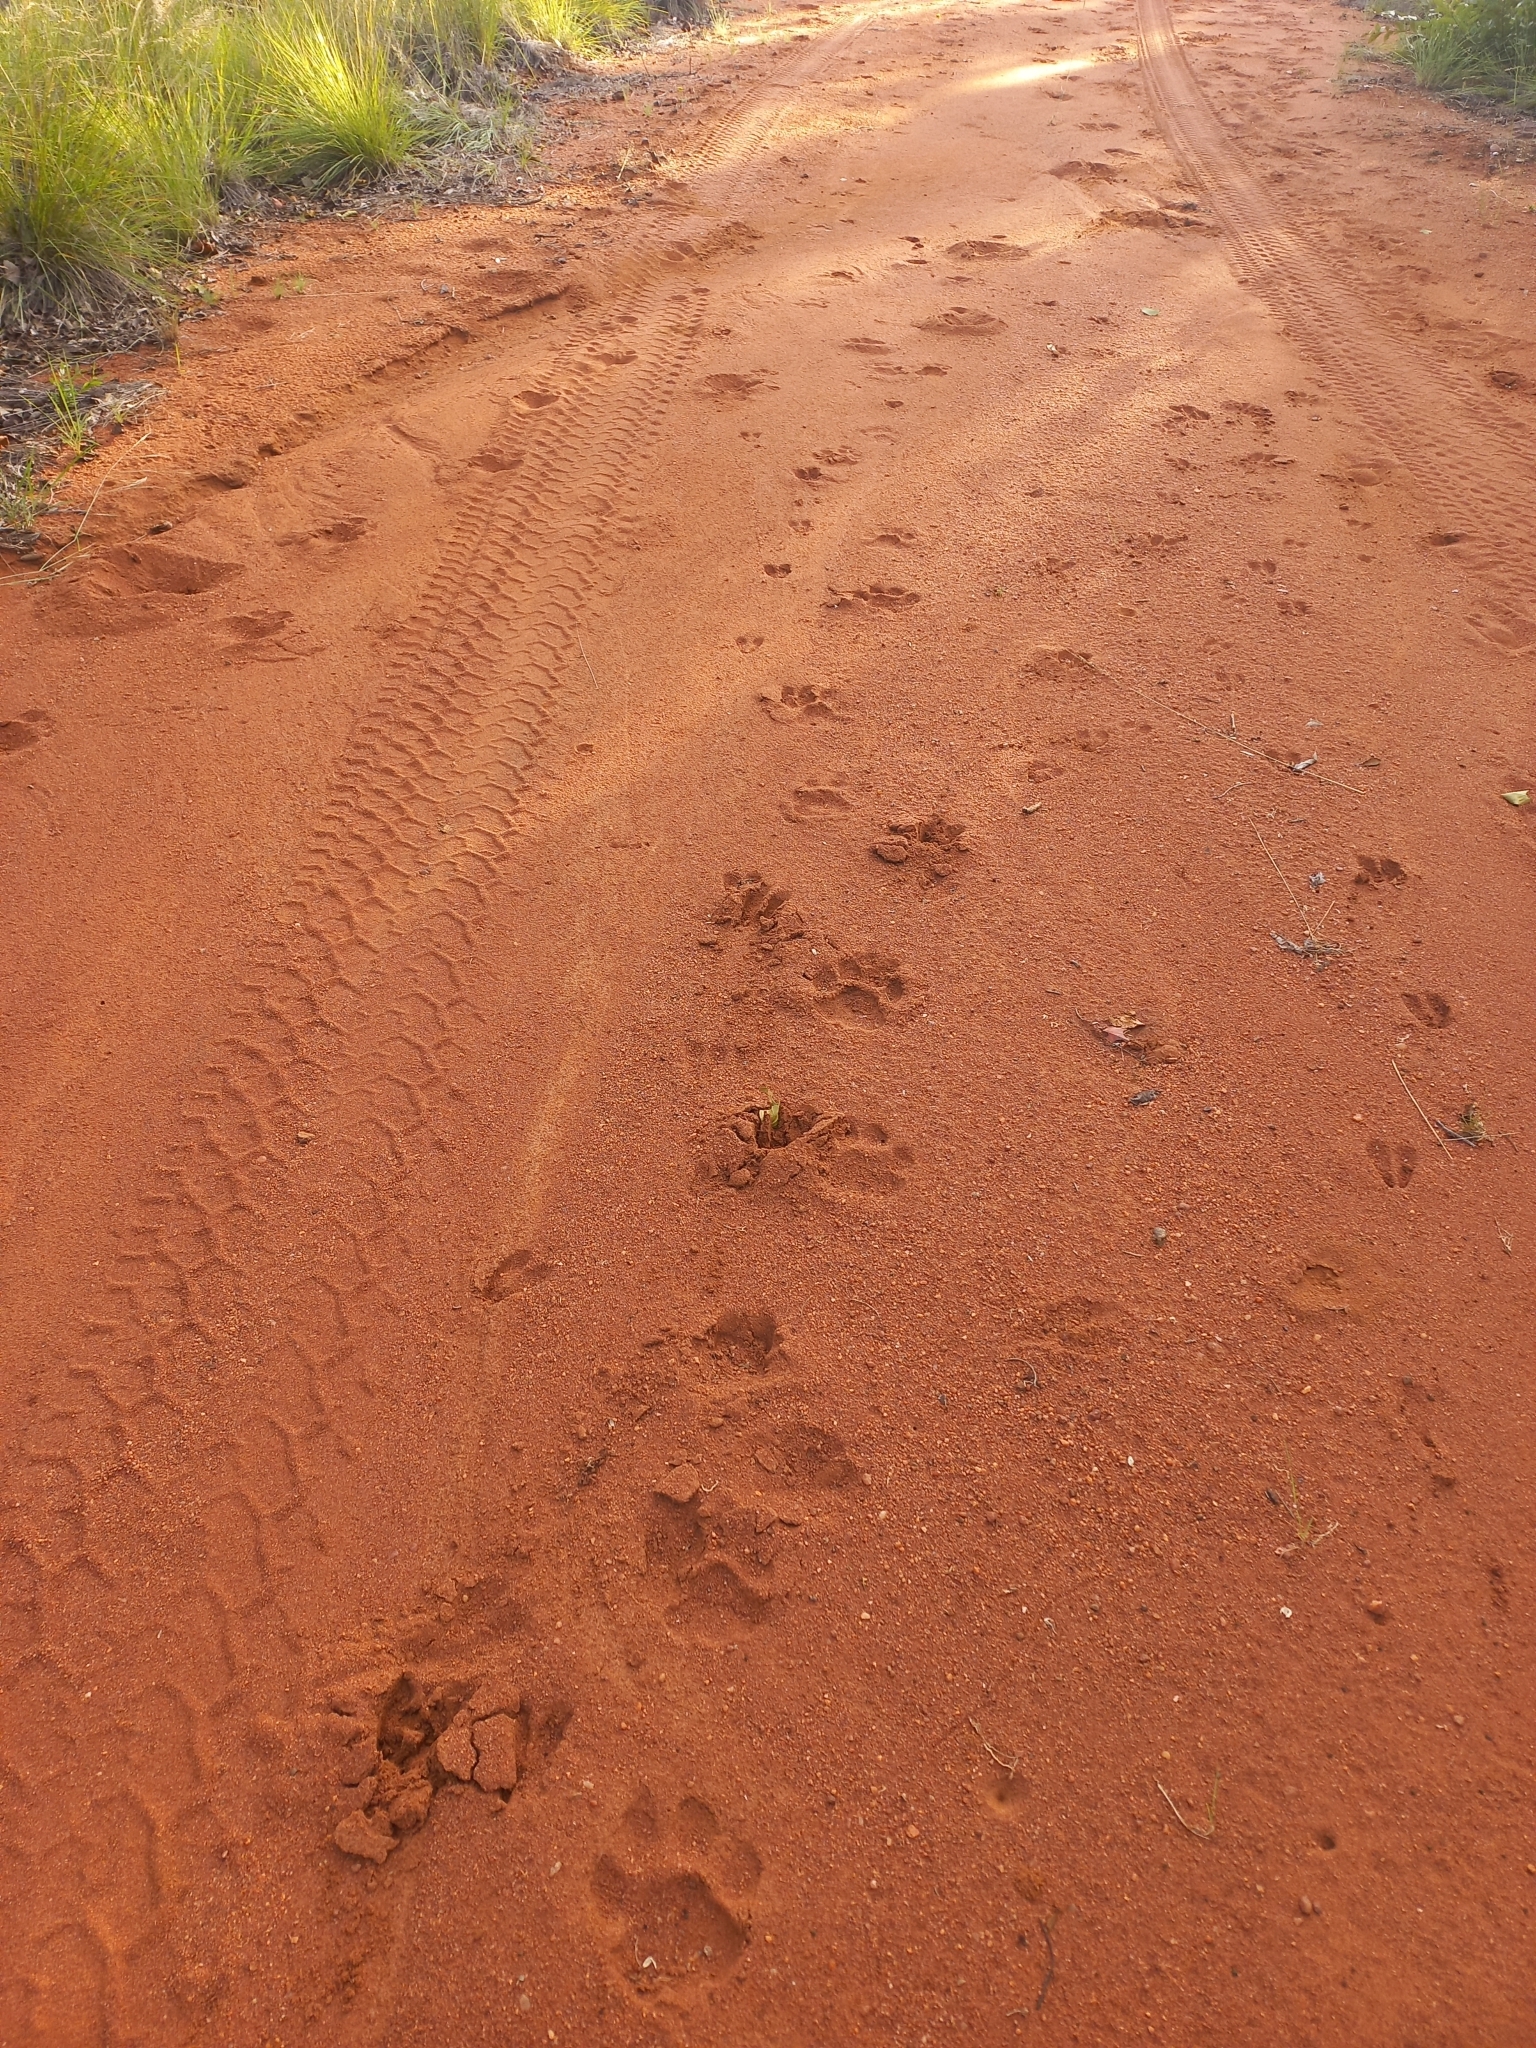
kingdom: Animalia
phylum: Chordata
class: Mammalia
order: Carnivora
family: Felidae
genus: Panthera
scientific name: Panthera pardus
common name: Leopard
